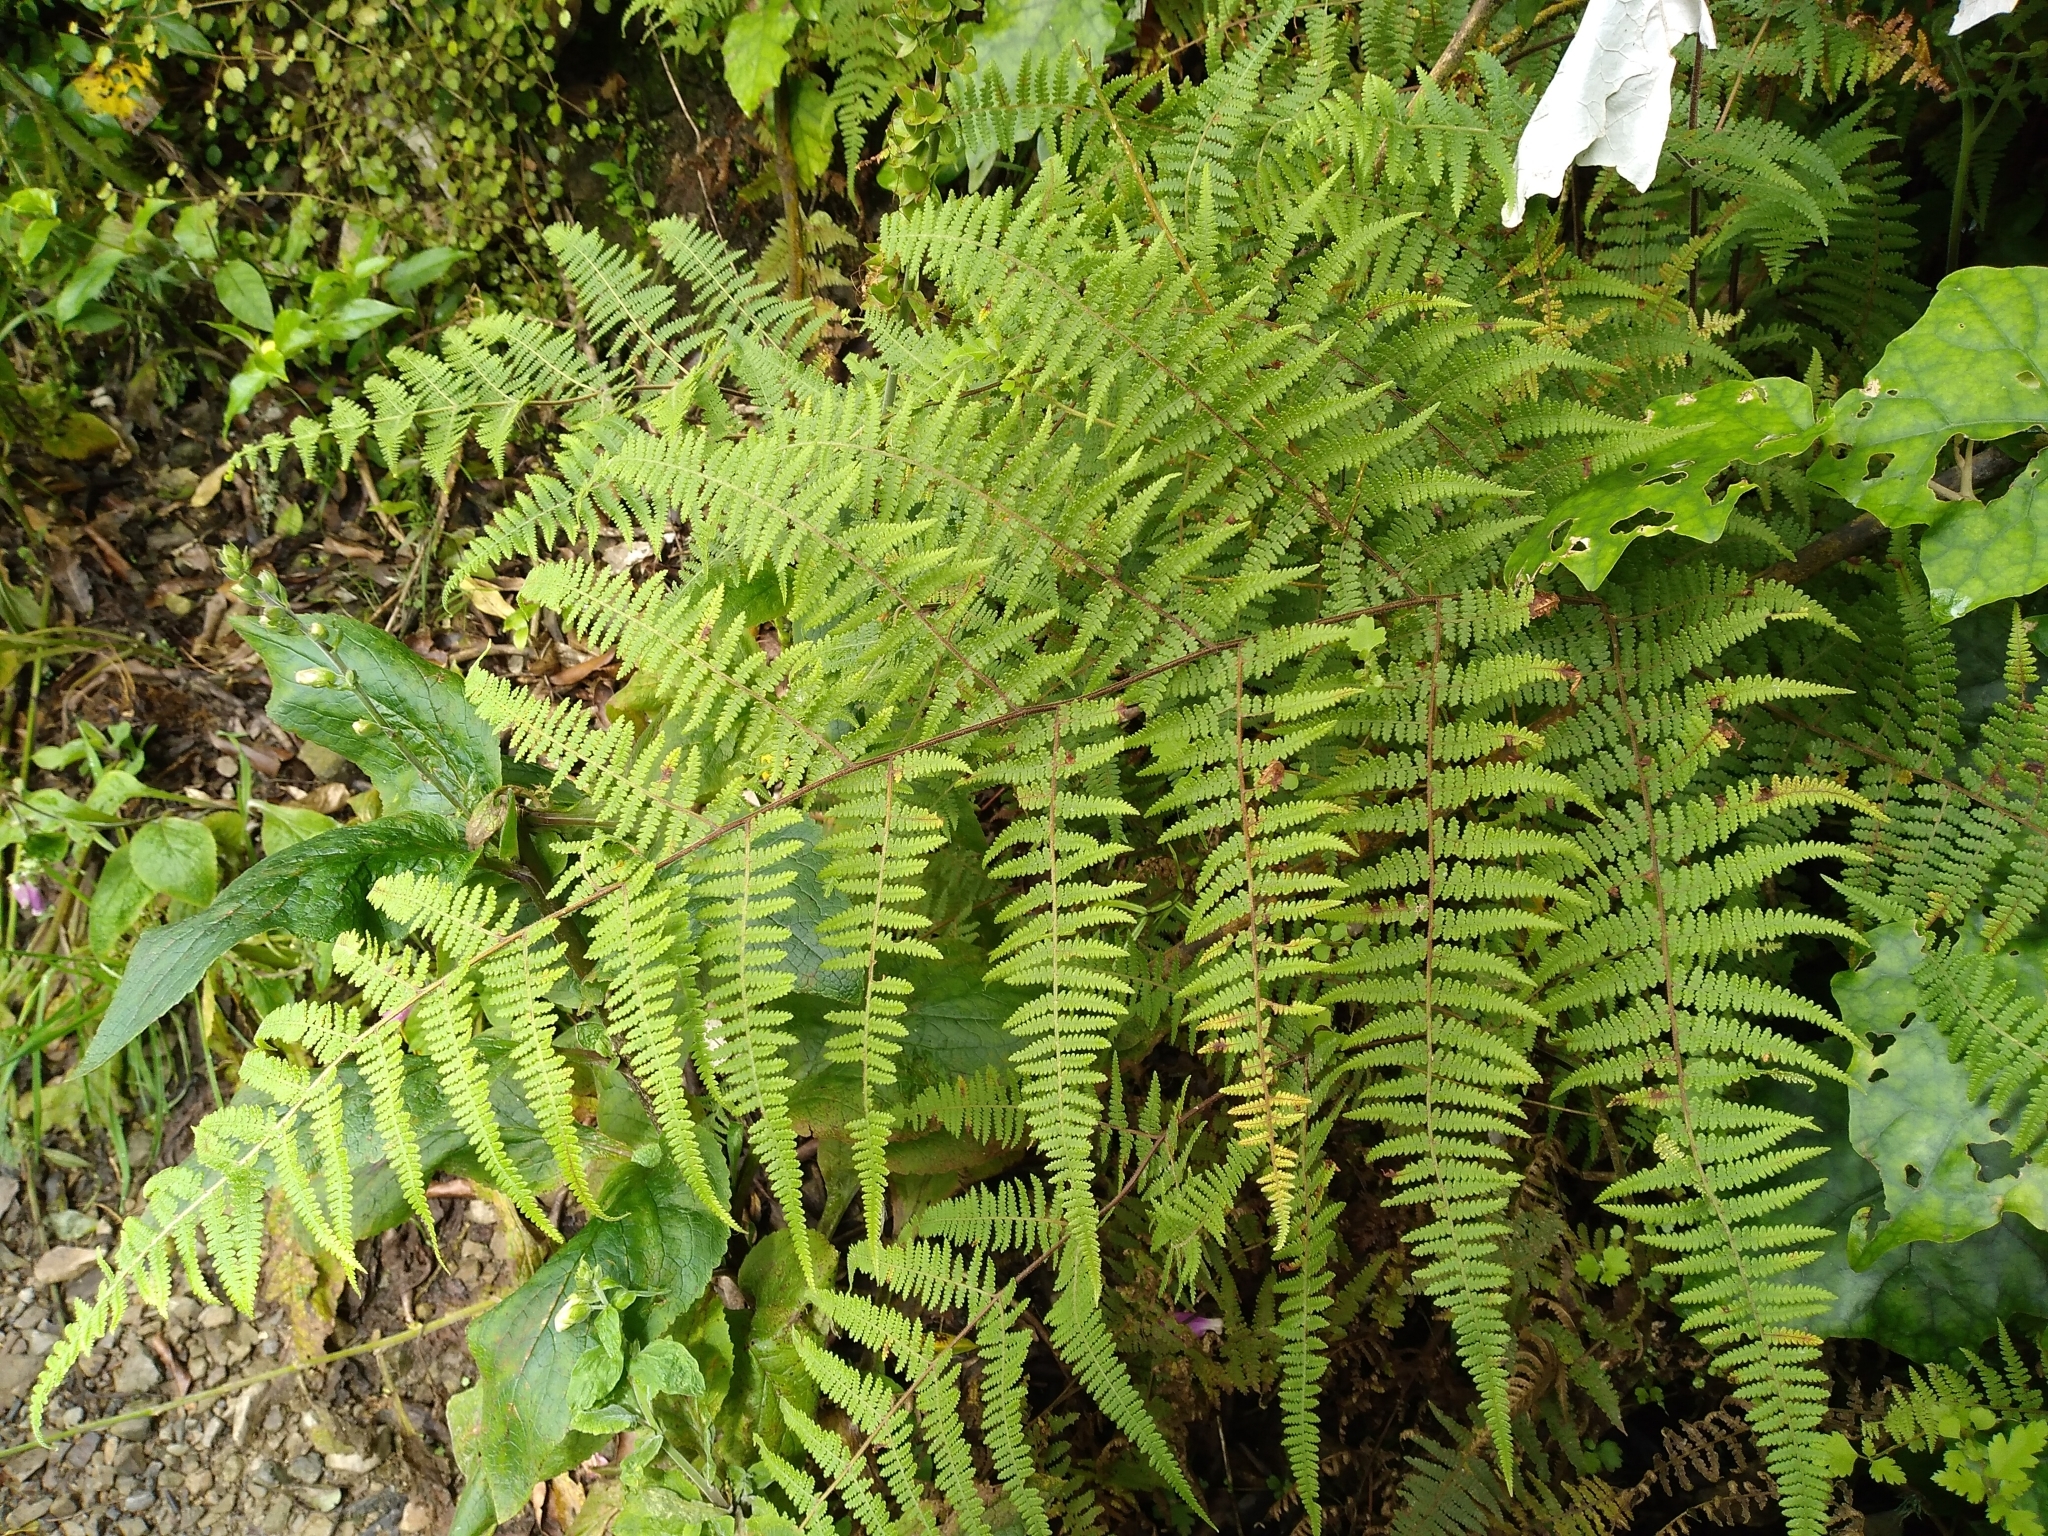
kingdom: Plantae
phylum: Tracheophyta
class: Polypodiopsida
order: Polypodiales
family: Dennstaedtiaceae
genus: Hypolepis
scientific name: Hypolepis rugosula
